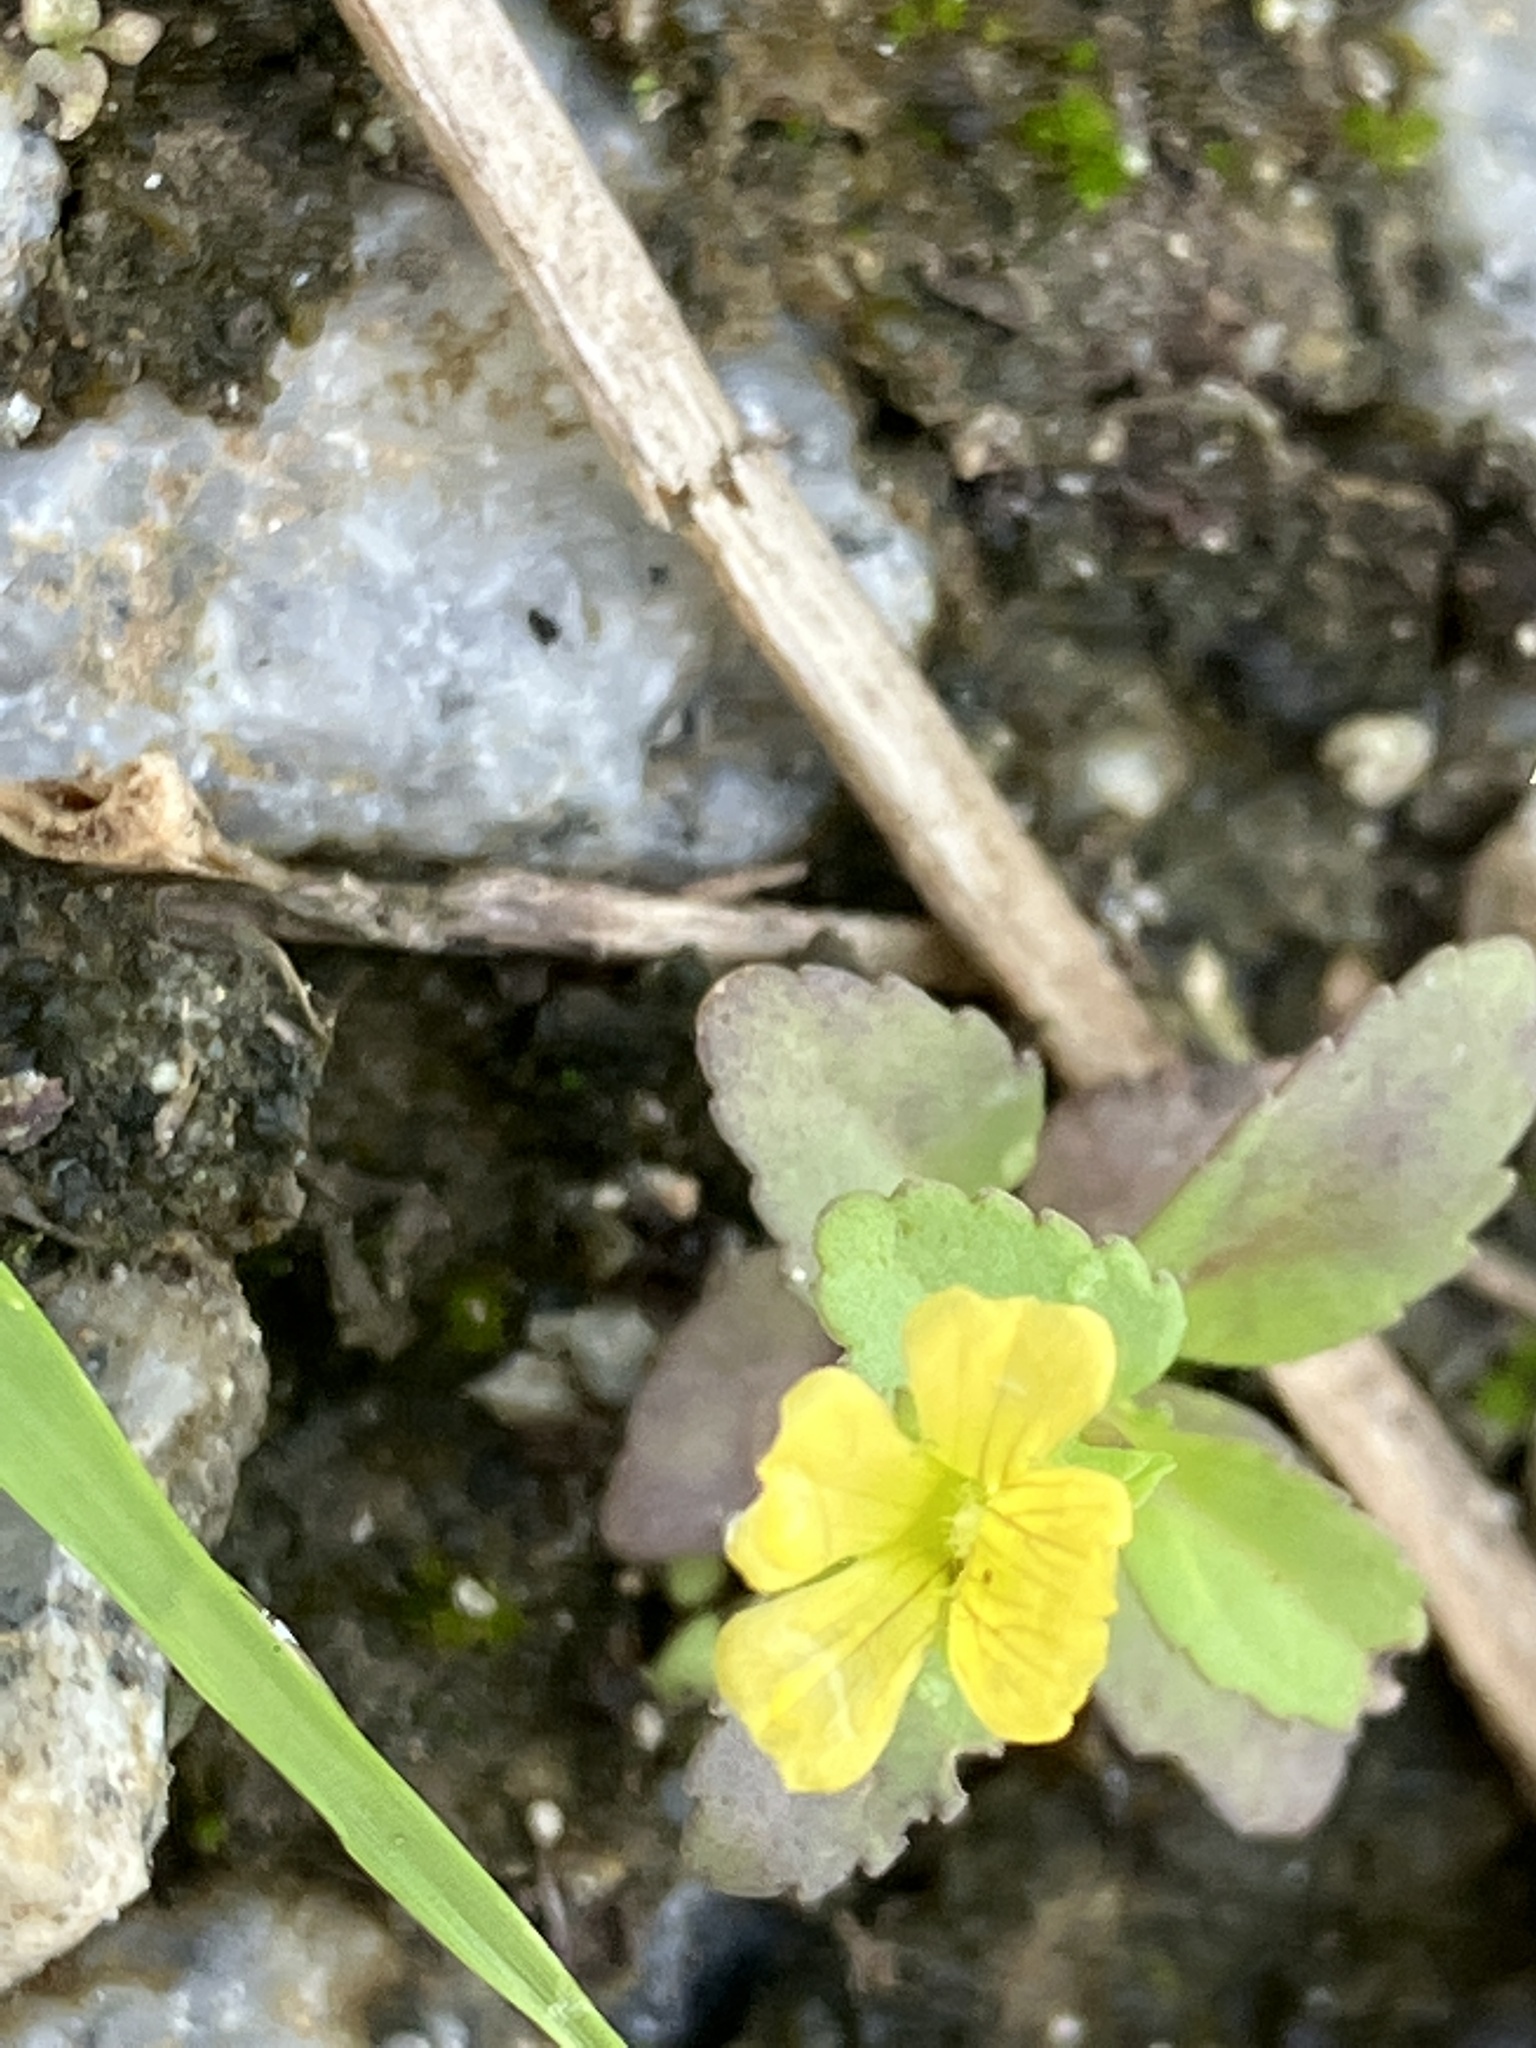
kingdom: Plantae
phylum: Tracheophyta
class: Magnoliopsida
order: Malvales
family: Malvaceae
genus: Sida
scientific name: Sida pusilla
